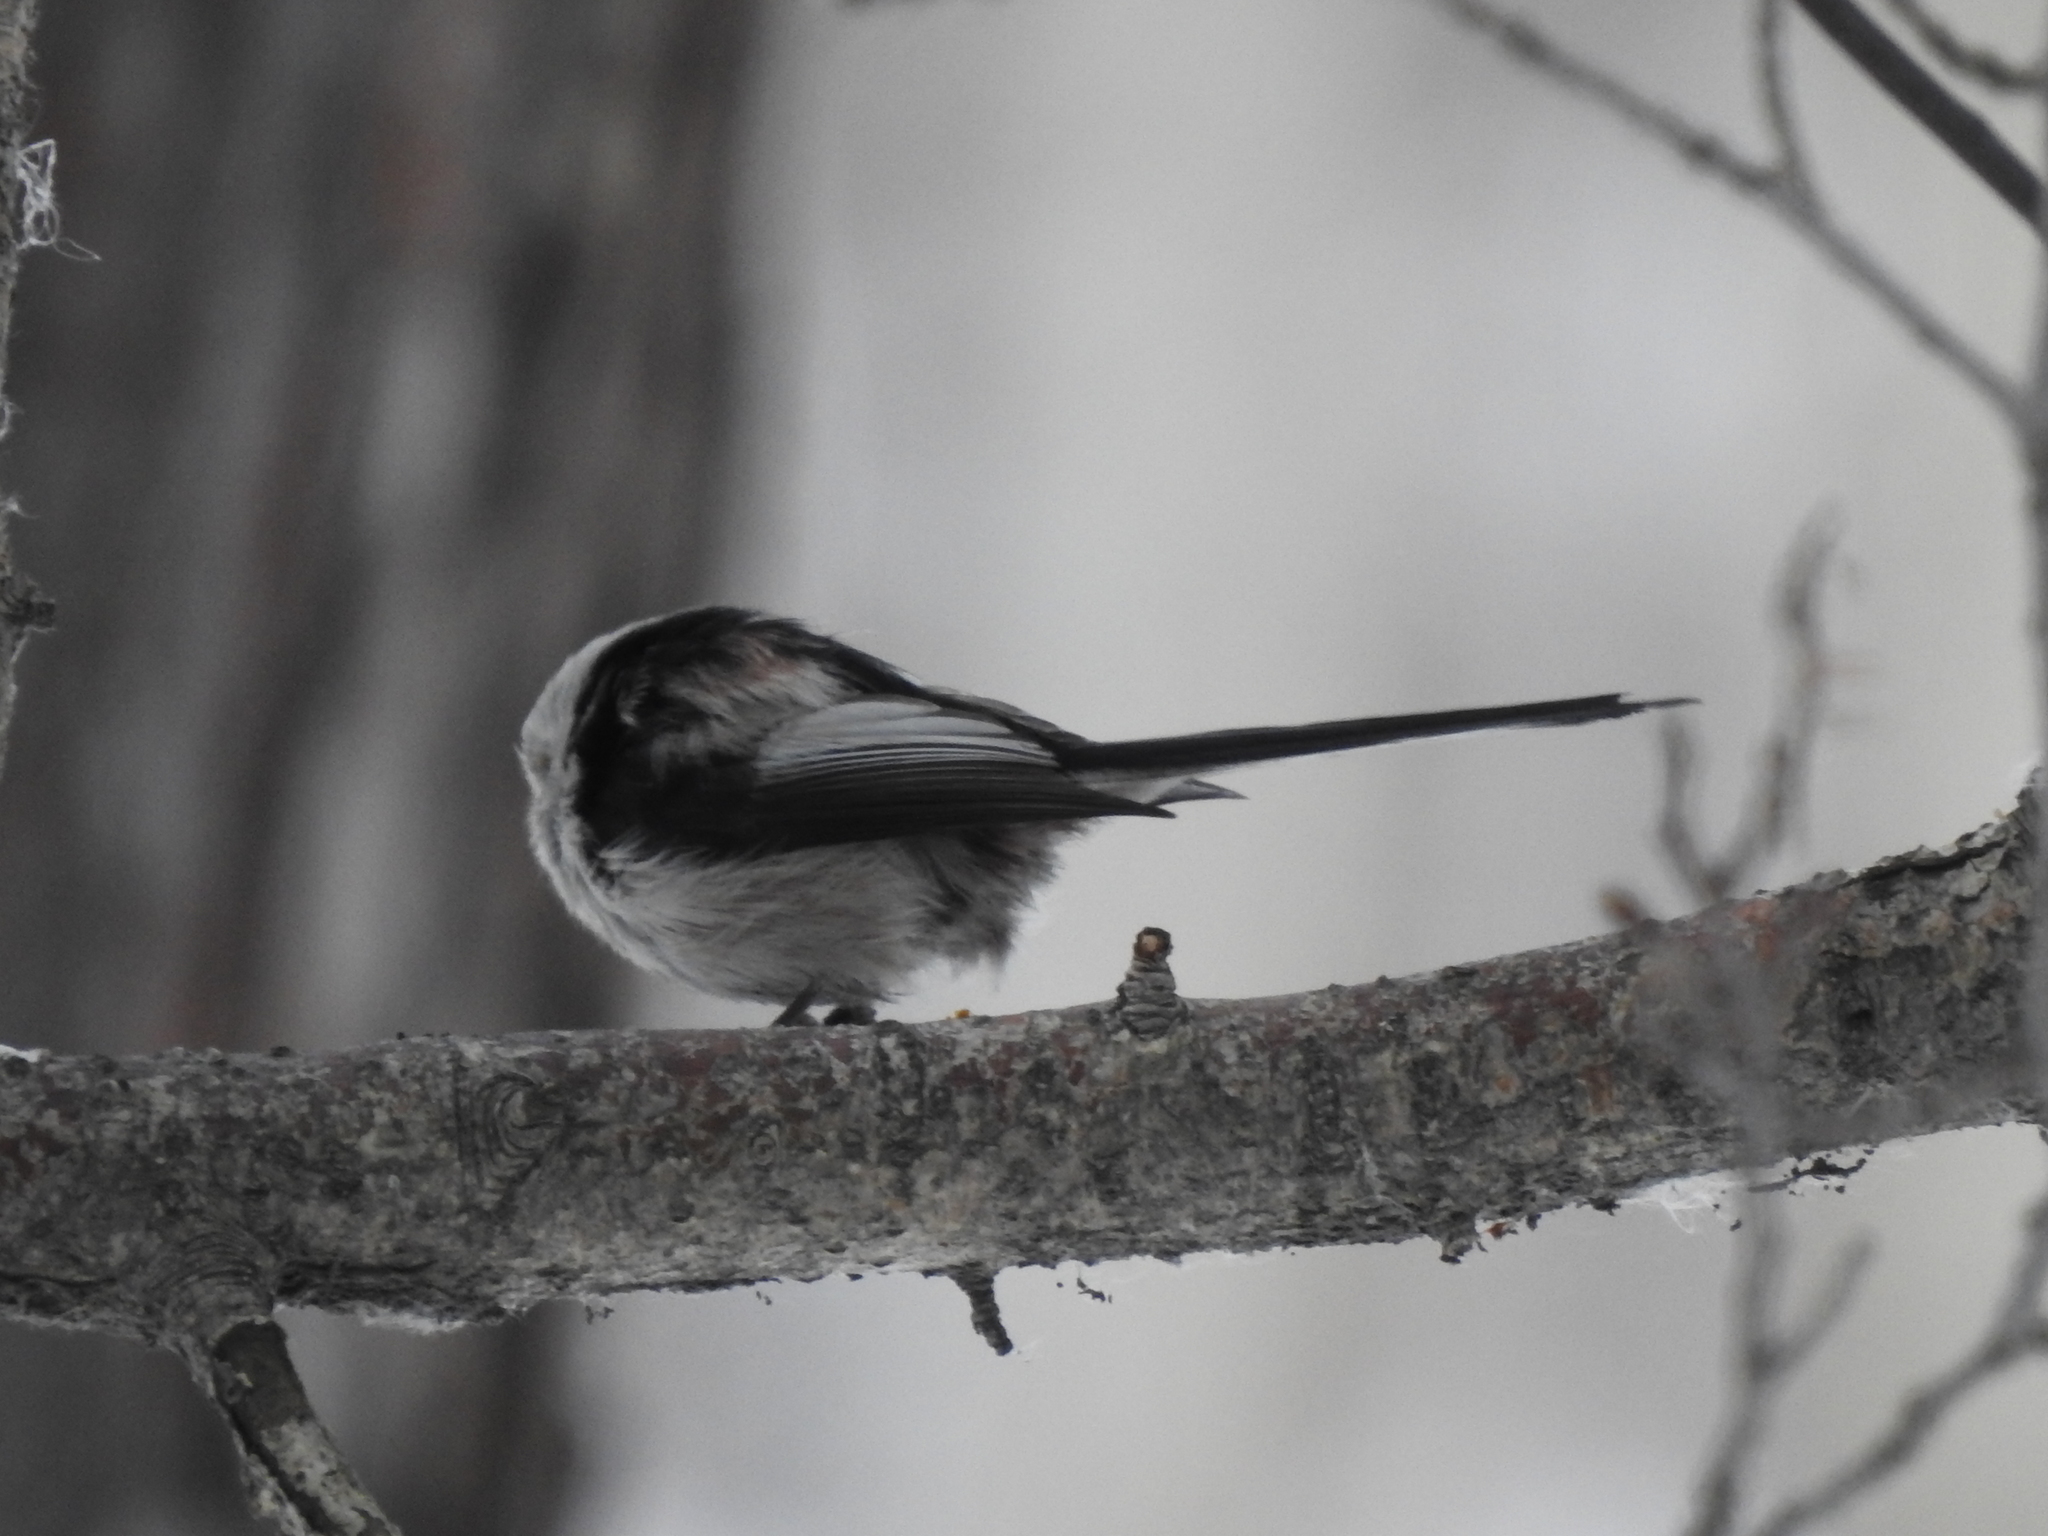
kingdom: Animalia
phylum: Chordata
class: Aves
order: Passeriformes
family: Aegithalidae
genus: Aegithalos
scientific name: Aegithalos caudatus
